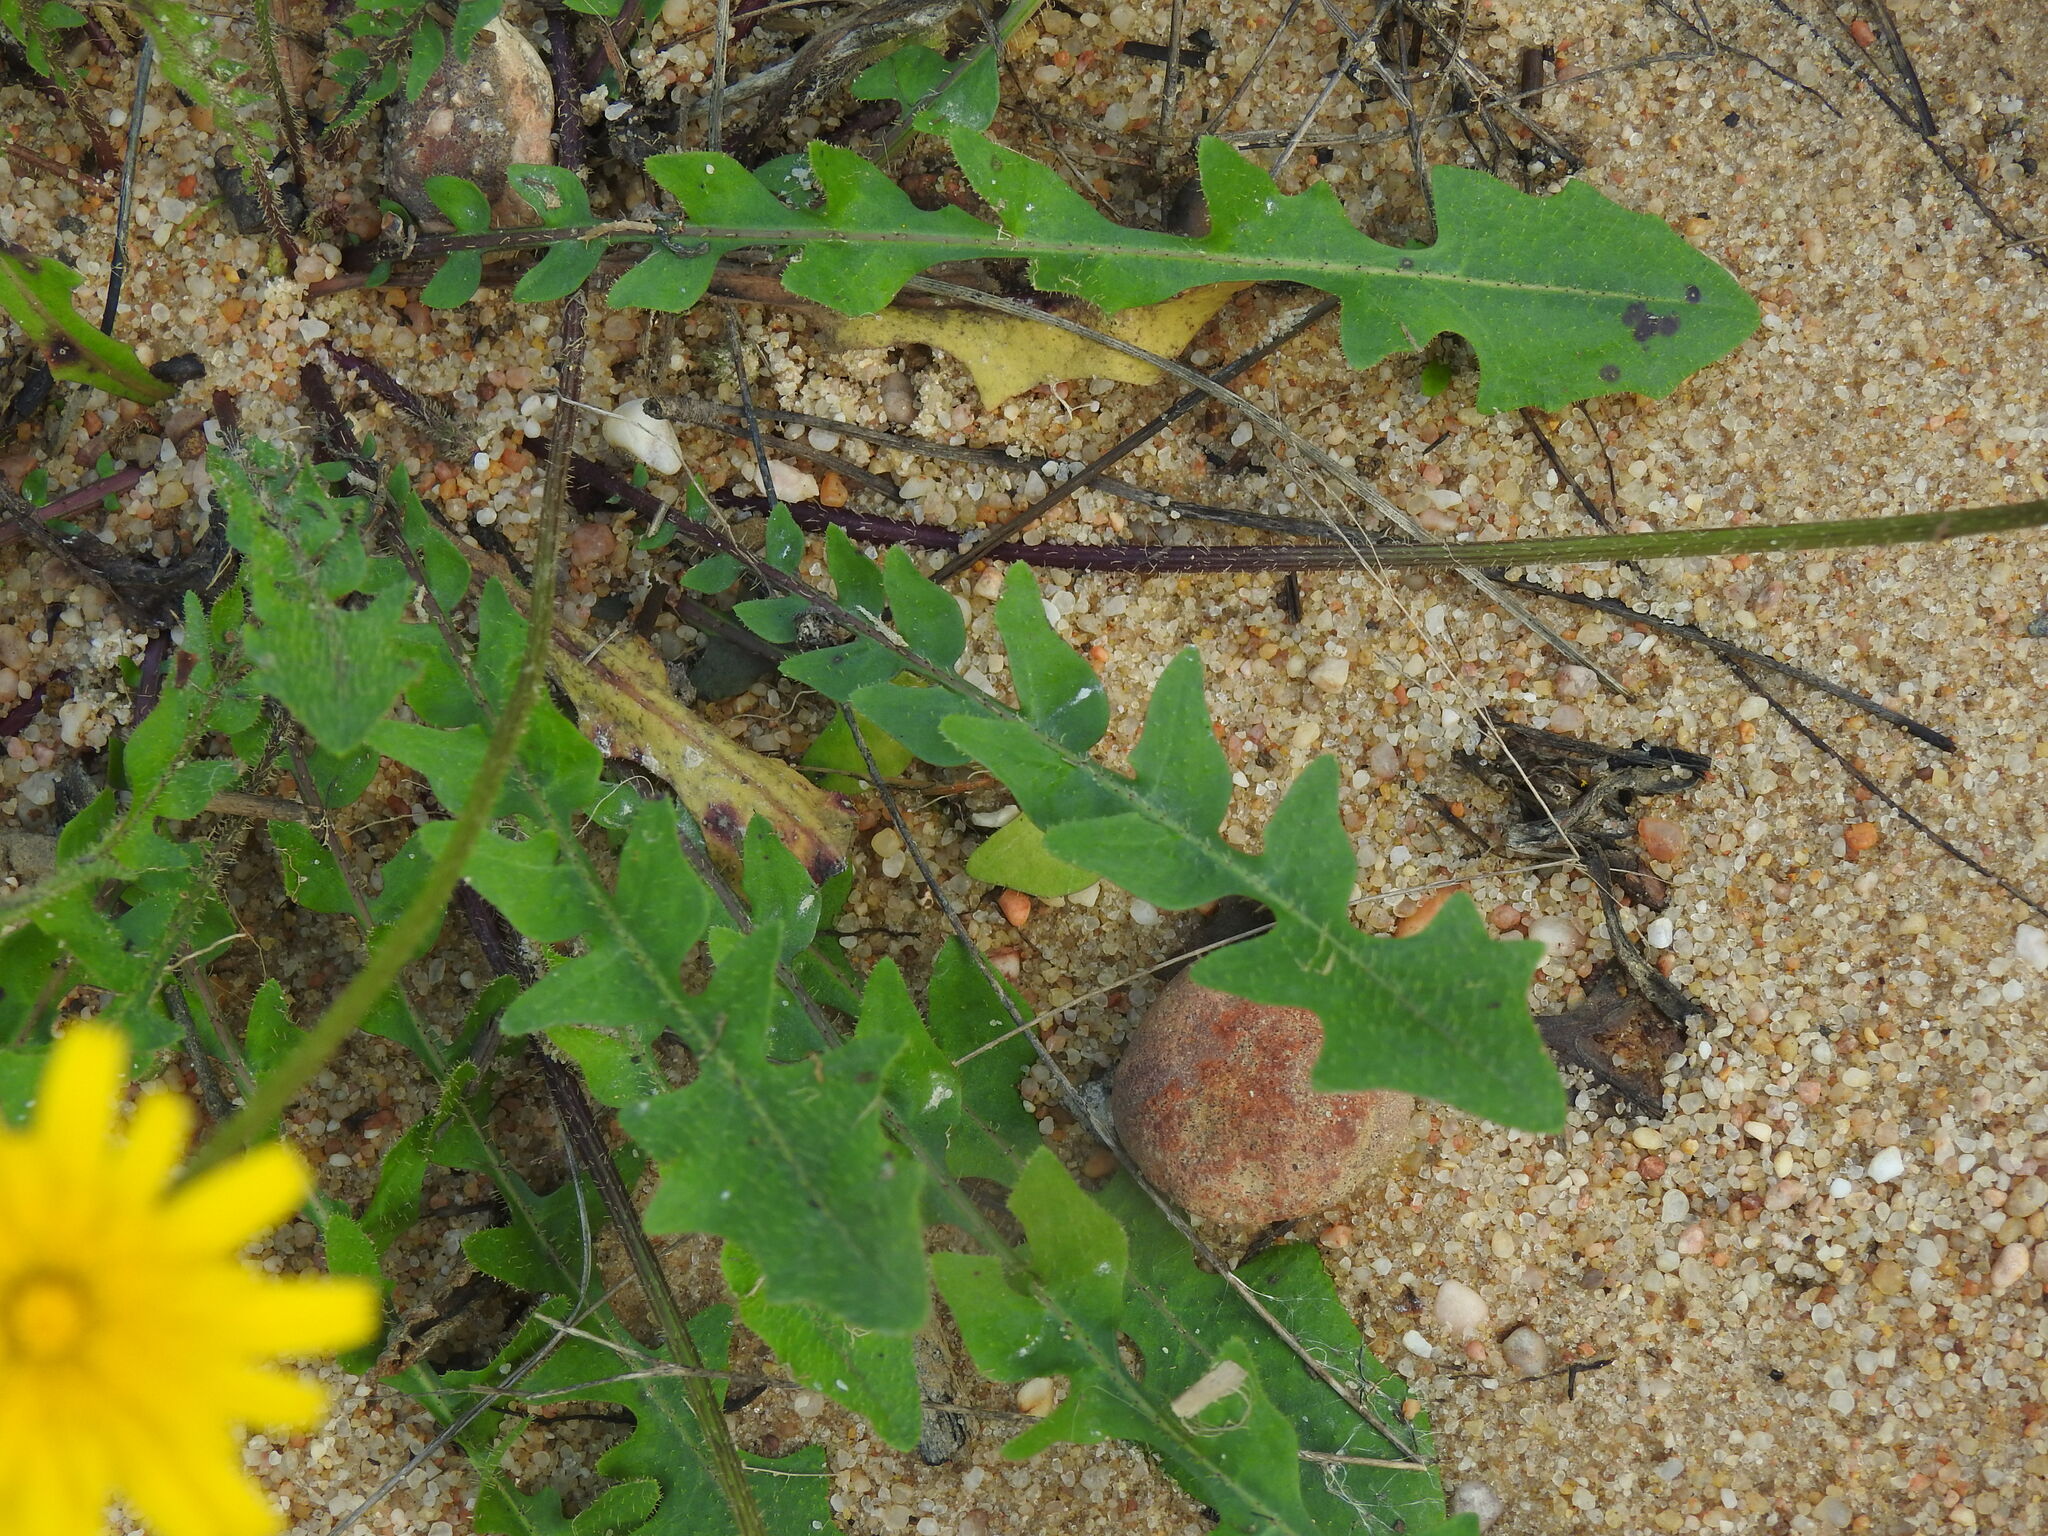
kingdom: Plantae
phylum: Tracheophyta
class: Magnoliopsida
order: Asterales
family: Asteraceae
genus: Leontodon
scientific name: Leontodon tuberosus
